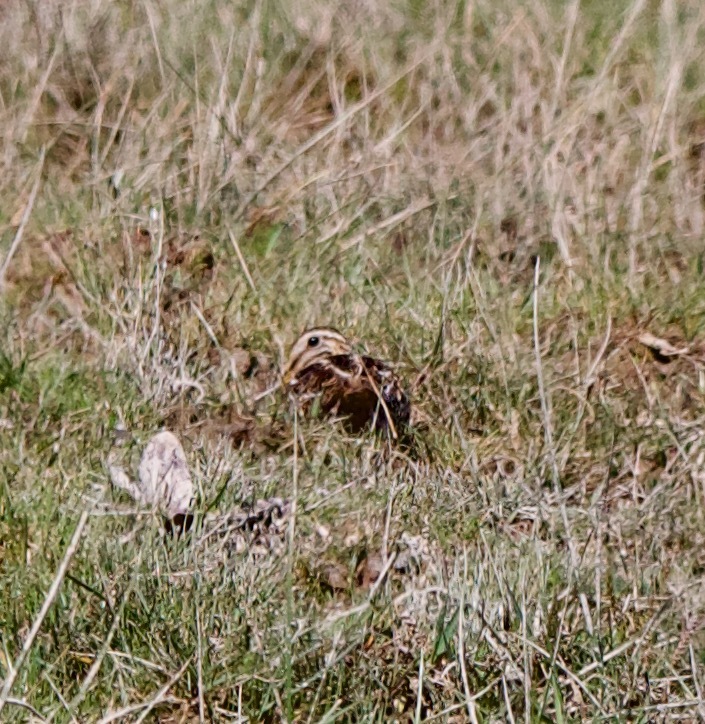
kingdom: Animalia
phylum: Chordata
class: Aves
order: Charadriiformes
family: Scolopacidae
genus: Gallinago
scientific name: Gallinago magellanica
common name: Magellanic snipe
